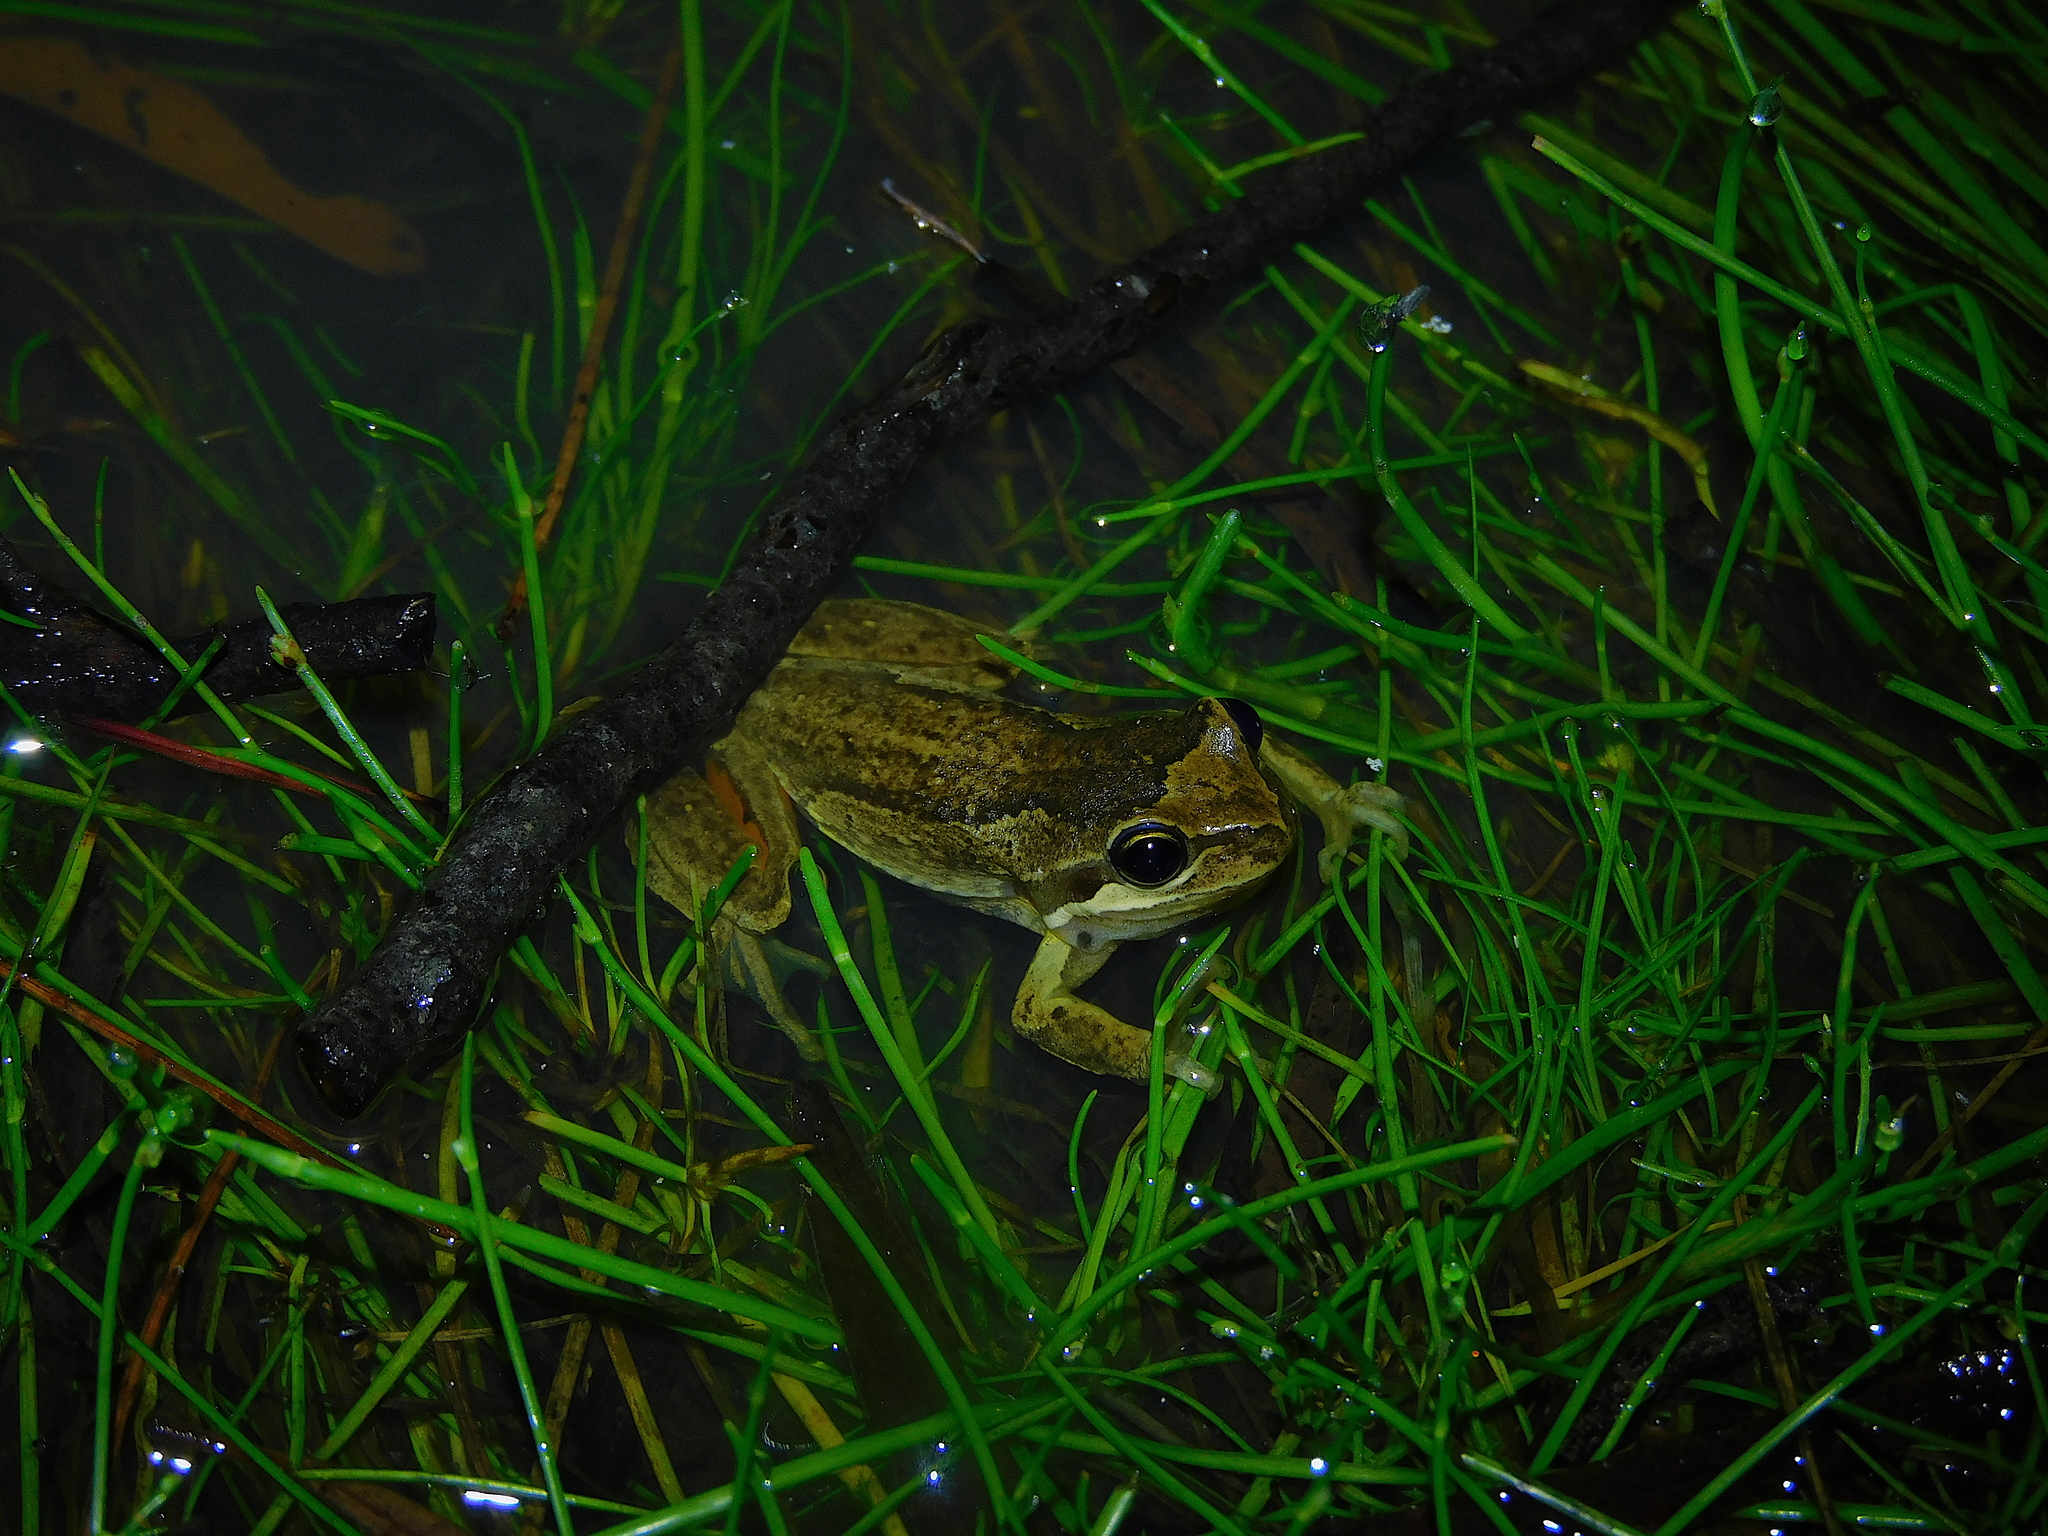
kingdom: Animalia
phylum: Chordata
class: Amphibia
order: Anura
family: Pelodryadidae
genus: Litoria
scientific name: Litoria ewingii
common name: Southern brown tree frog
